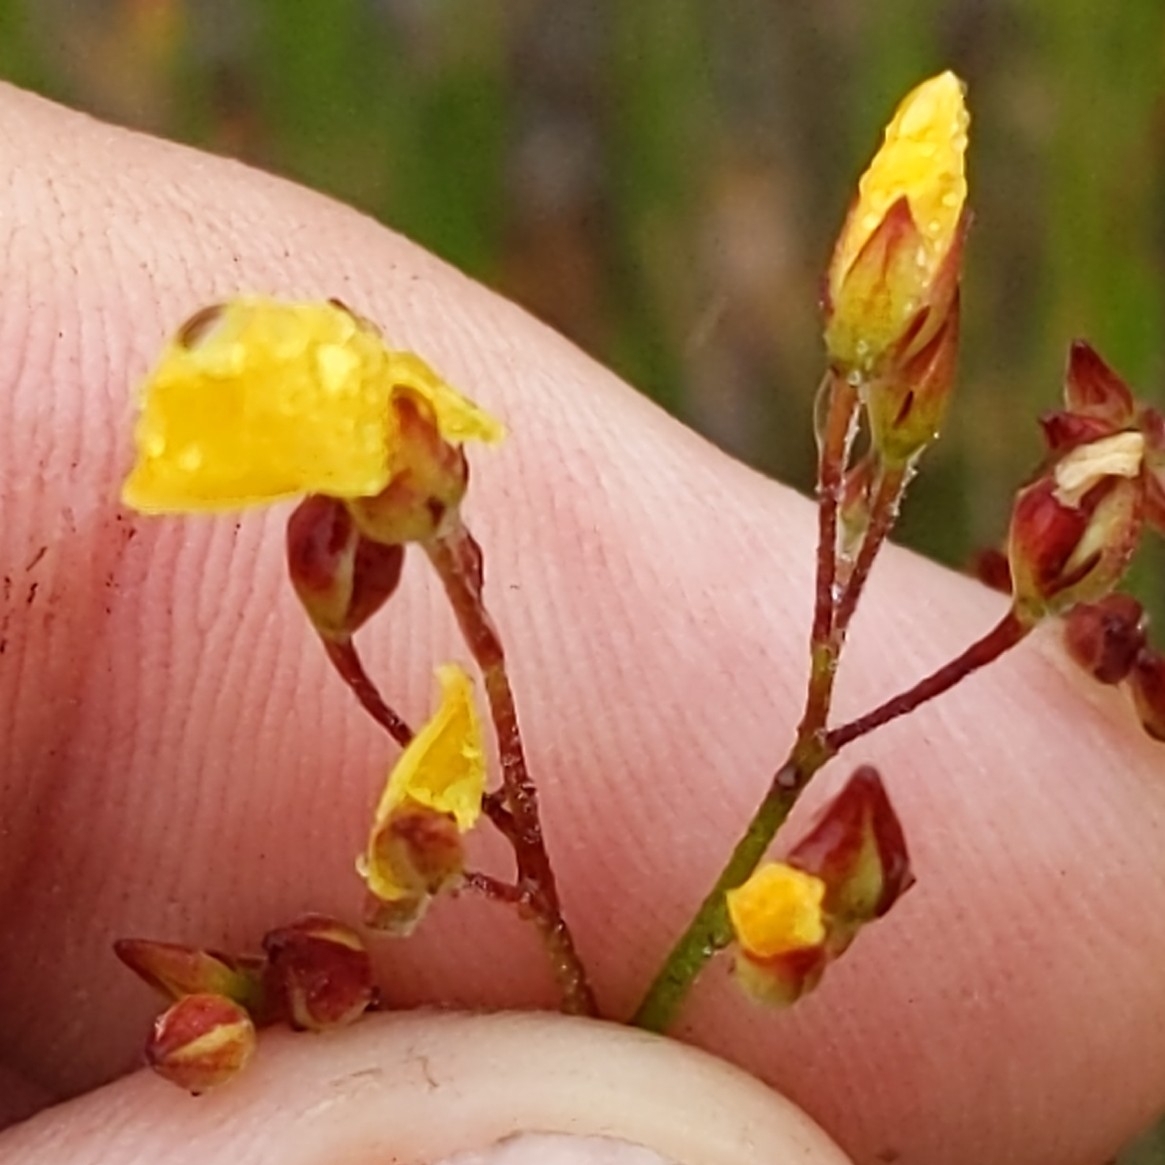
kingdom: Plantae
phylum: Tracheophyta
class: Magnoliopsida
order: Malvales
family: Cistaceae
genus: Crocanthemum
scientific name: Crocanthemum scoparium
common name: Broom-rose
